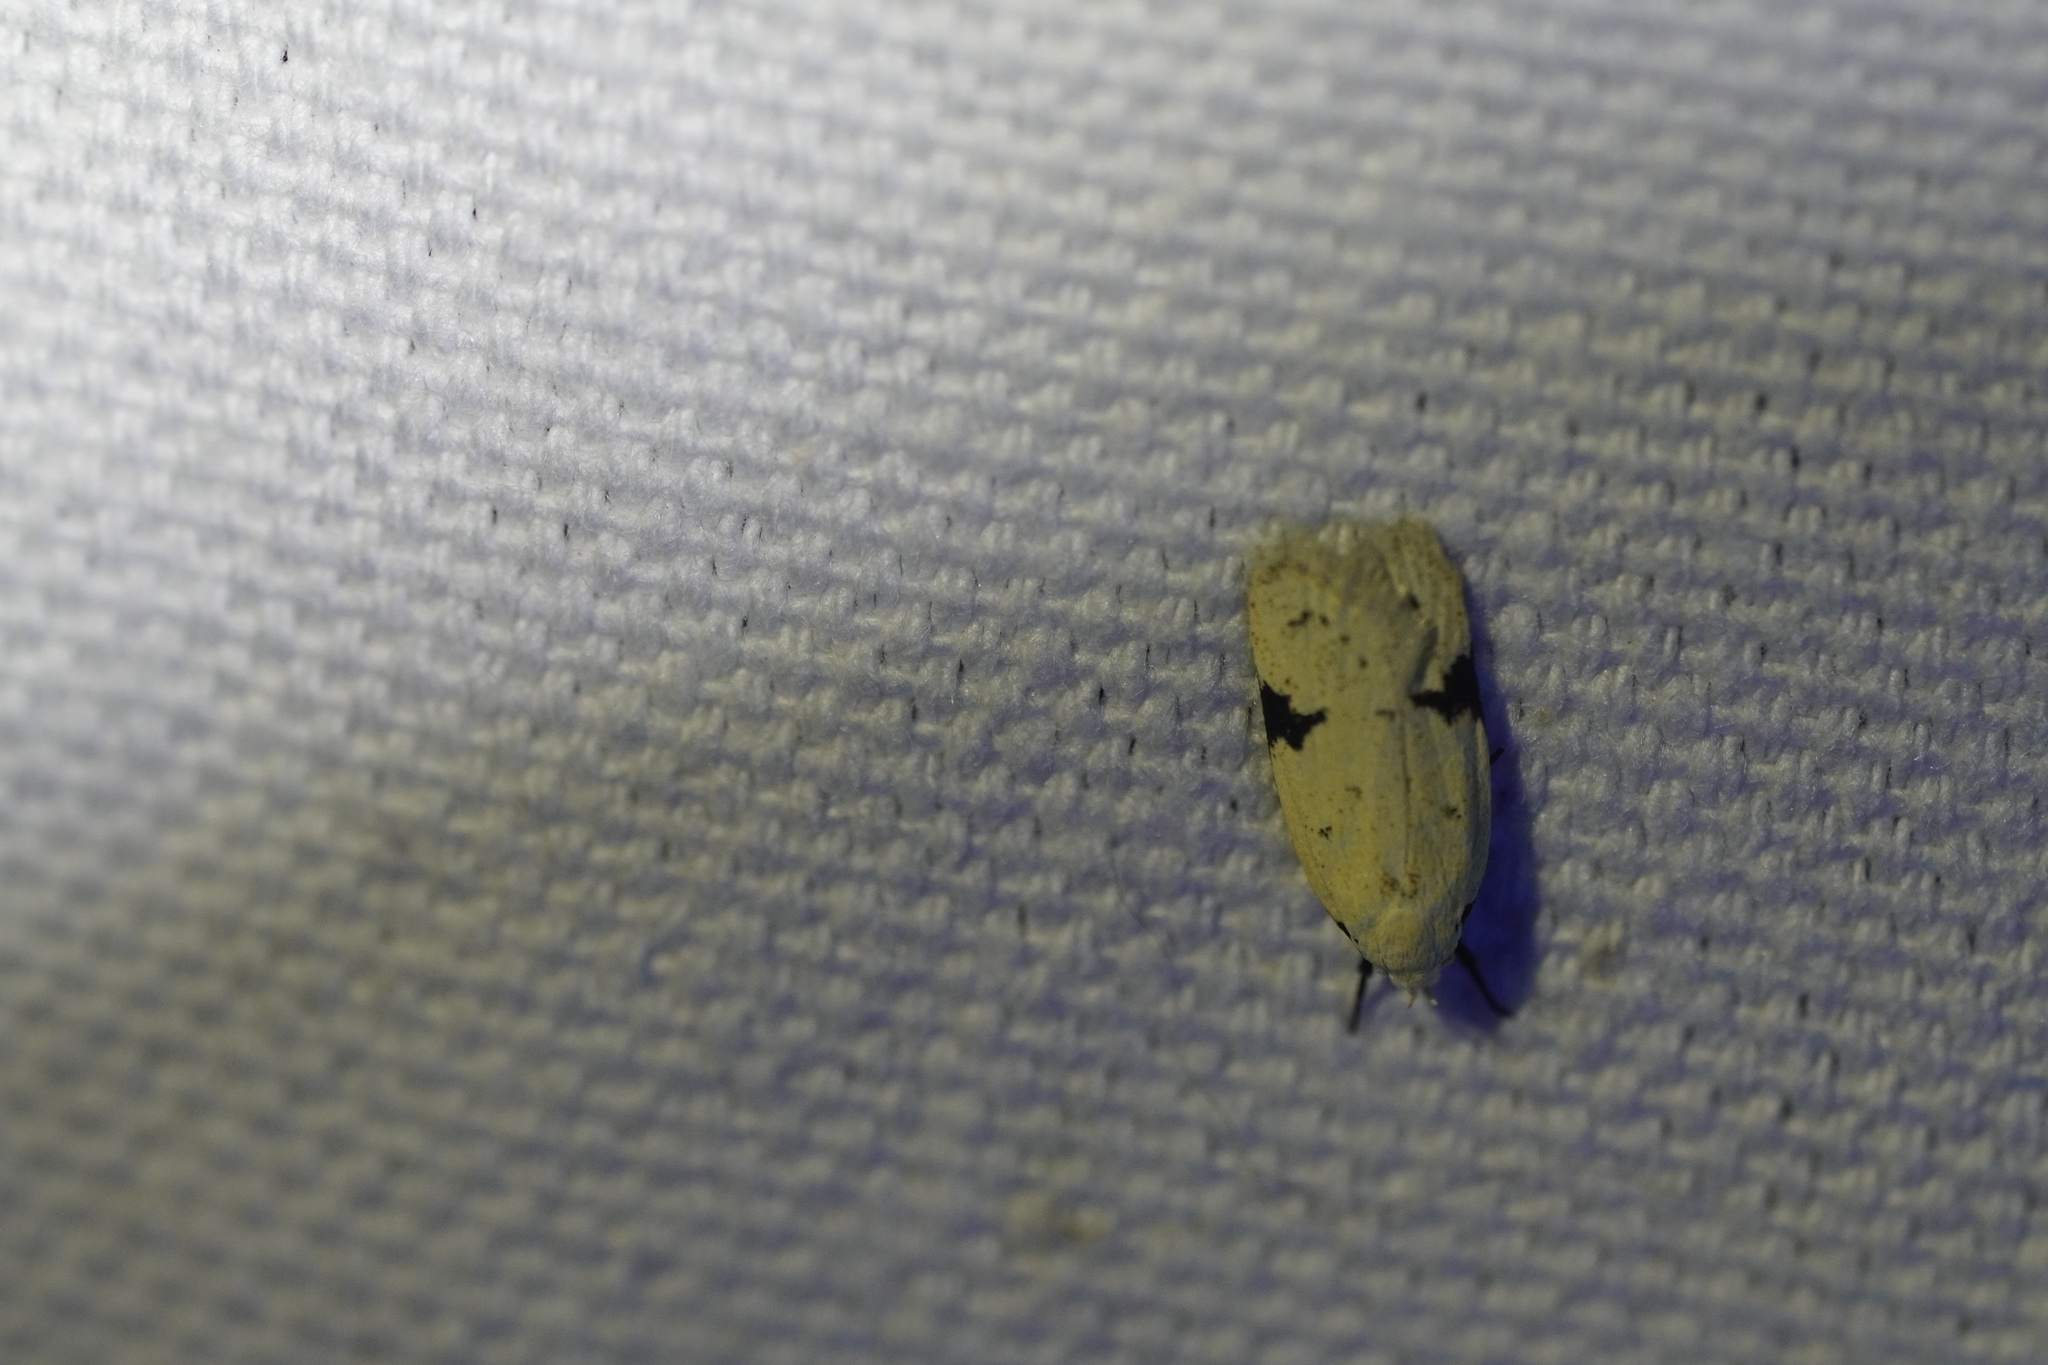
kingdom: Animalia
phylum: Arthropoda
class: Insecta
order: Lepidoptera
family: Oecophoridae
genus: Inga
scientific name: Inga sparsiciliella
